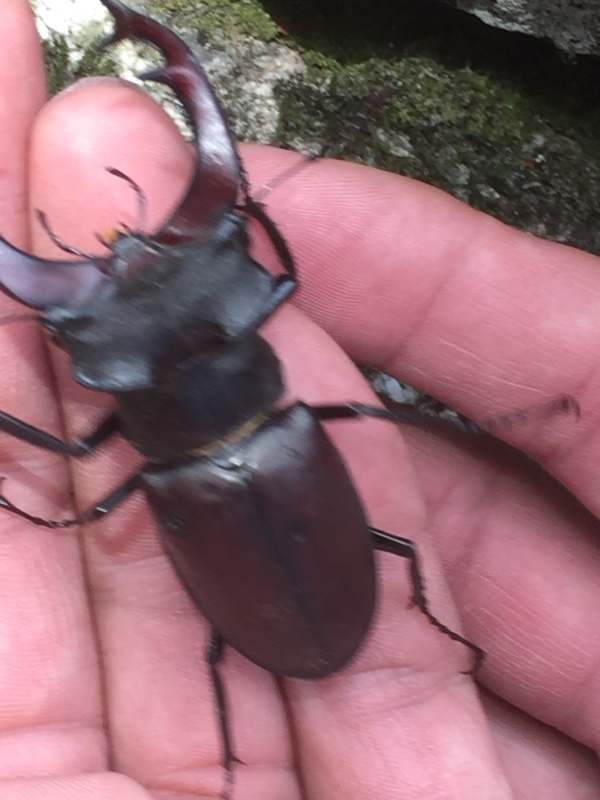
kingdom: Animalia
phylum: Arthropoda
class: Insecta
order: Coleoptera
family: Lucanidae
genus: Lucanus
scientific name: Lucanus cervus
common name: Stag beetle
